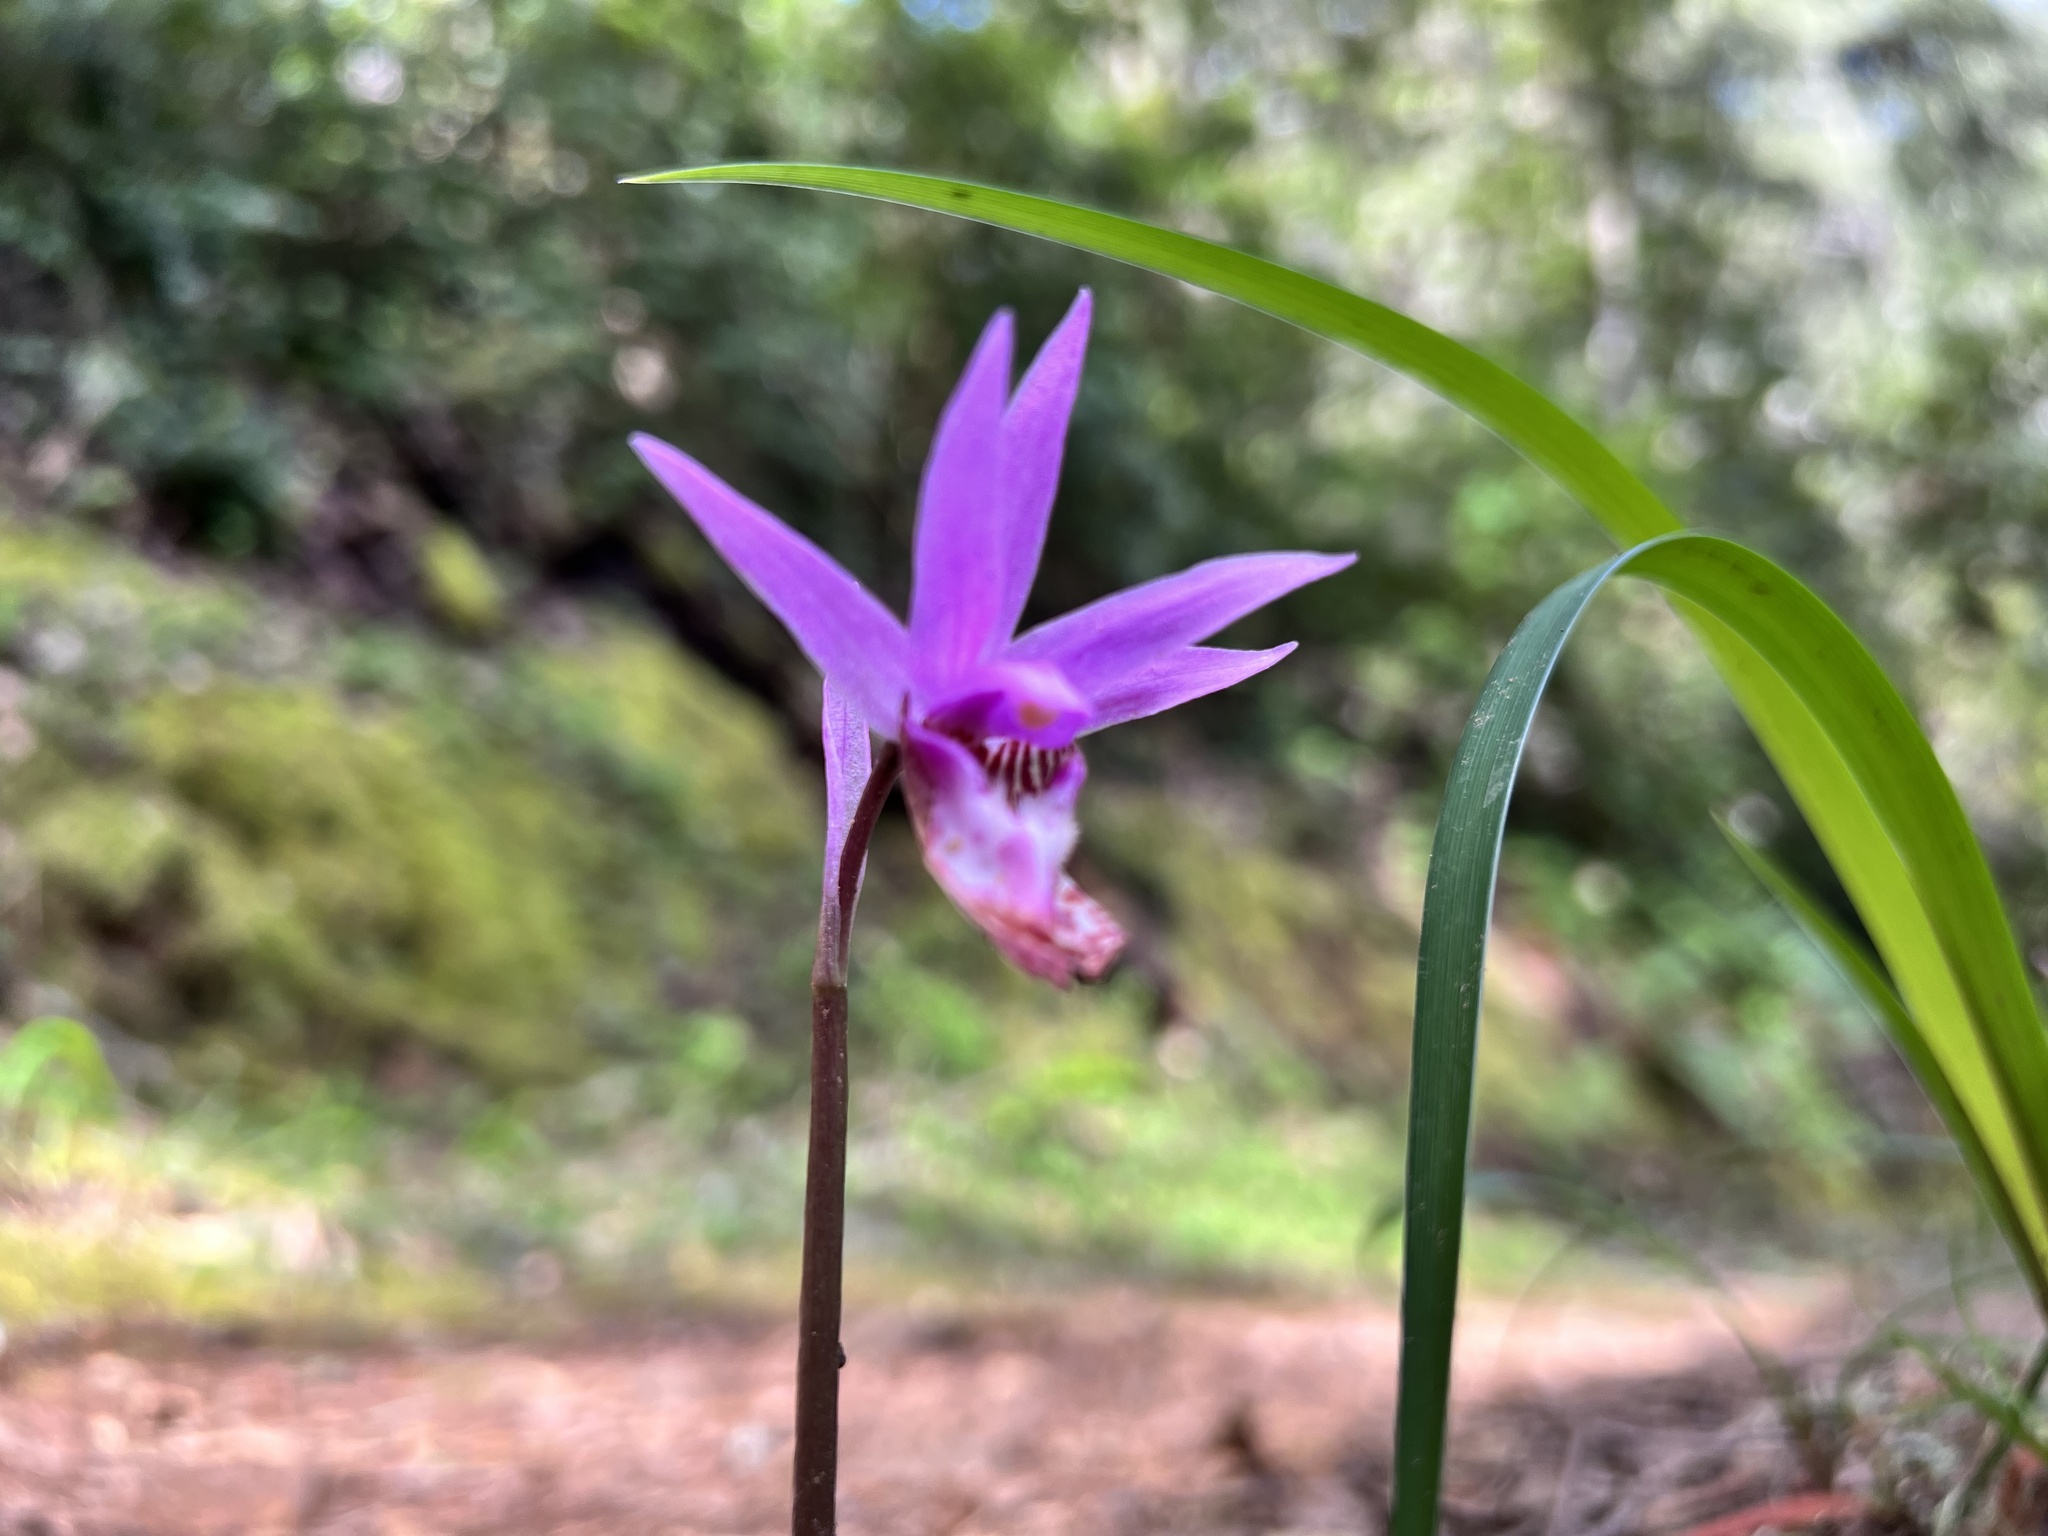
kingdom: Plantae
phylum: Tracheophyta
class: Liliopsida
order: Asparagales
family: Orchidaceae
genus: Calypso
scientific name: Calypso bulbosa
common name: Calypso
